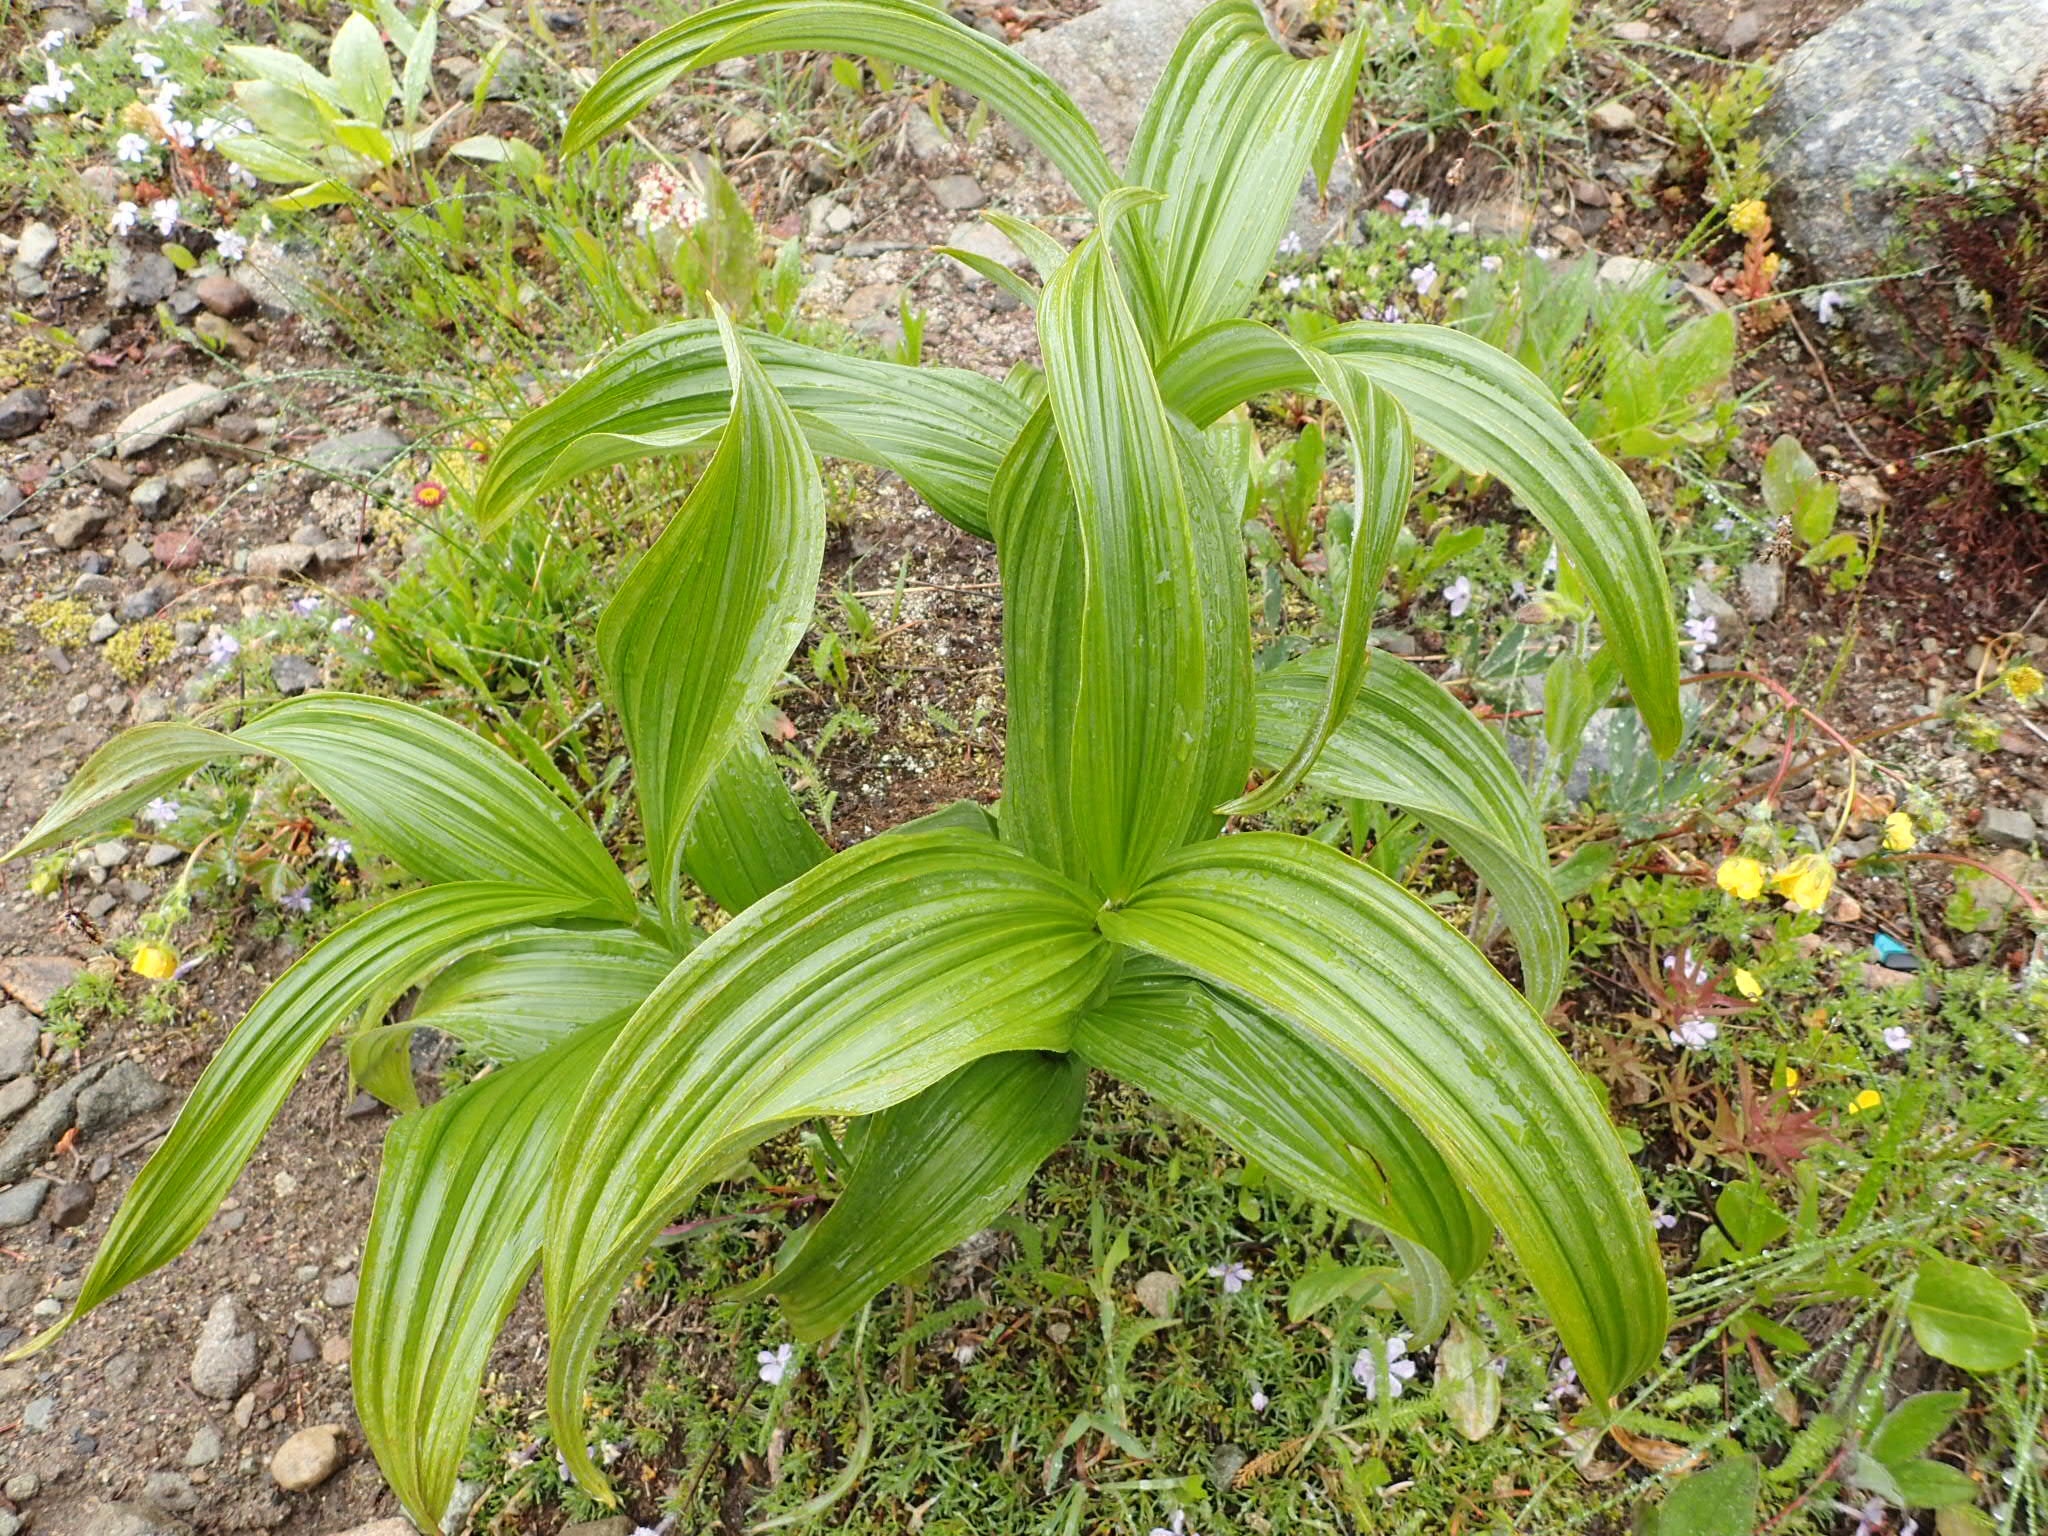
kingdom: Plantae
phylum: Tracheophyta
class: Liliopsida
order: Liliales
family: Melanthiaceae
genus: Veratrum
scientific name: Veratrum viride
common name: American false hellebore
